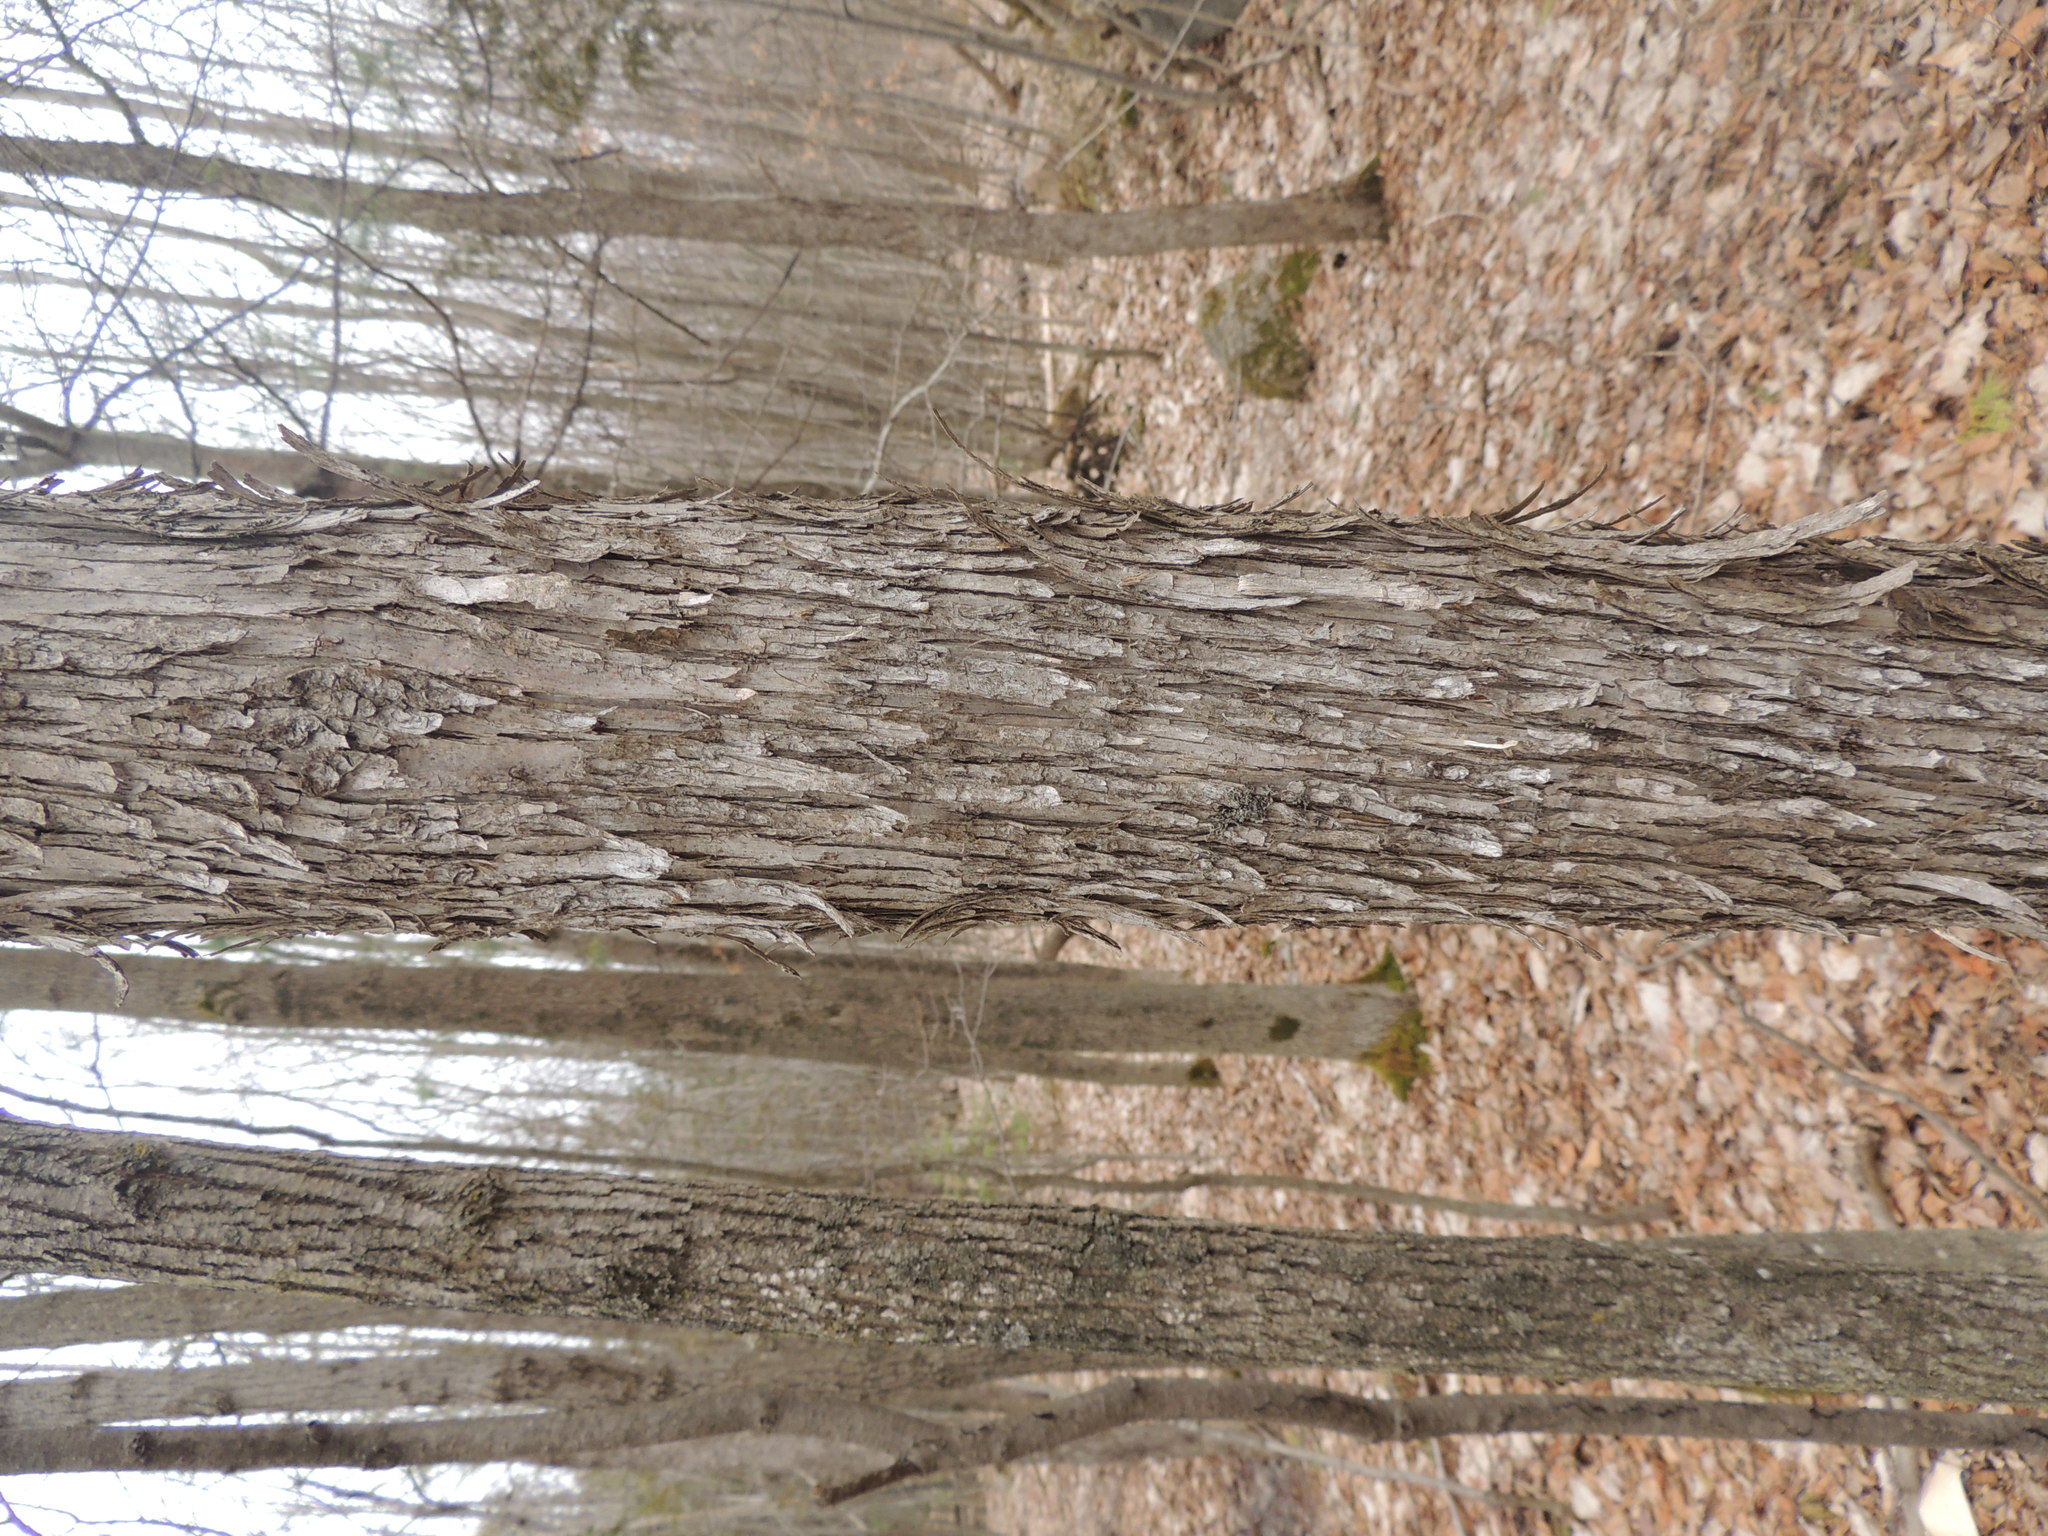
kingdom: Plantae
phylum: Tracheophyta
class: Magnoliopsida
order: Fagales
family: Betulaceae
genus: Ostrya
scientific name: Ostrya virginiana
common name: Ironwood
